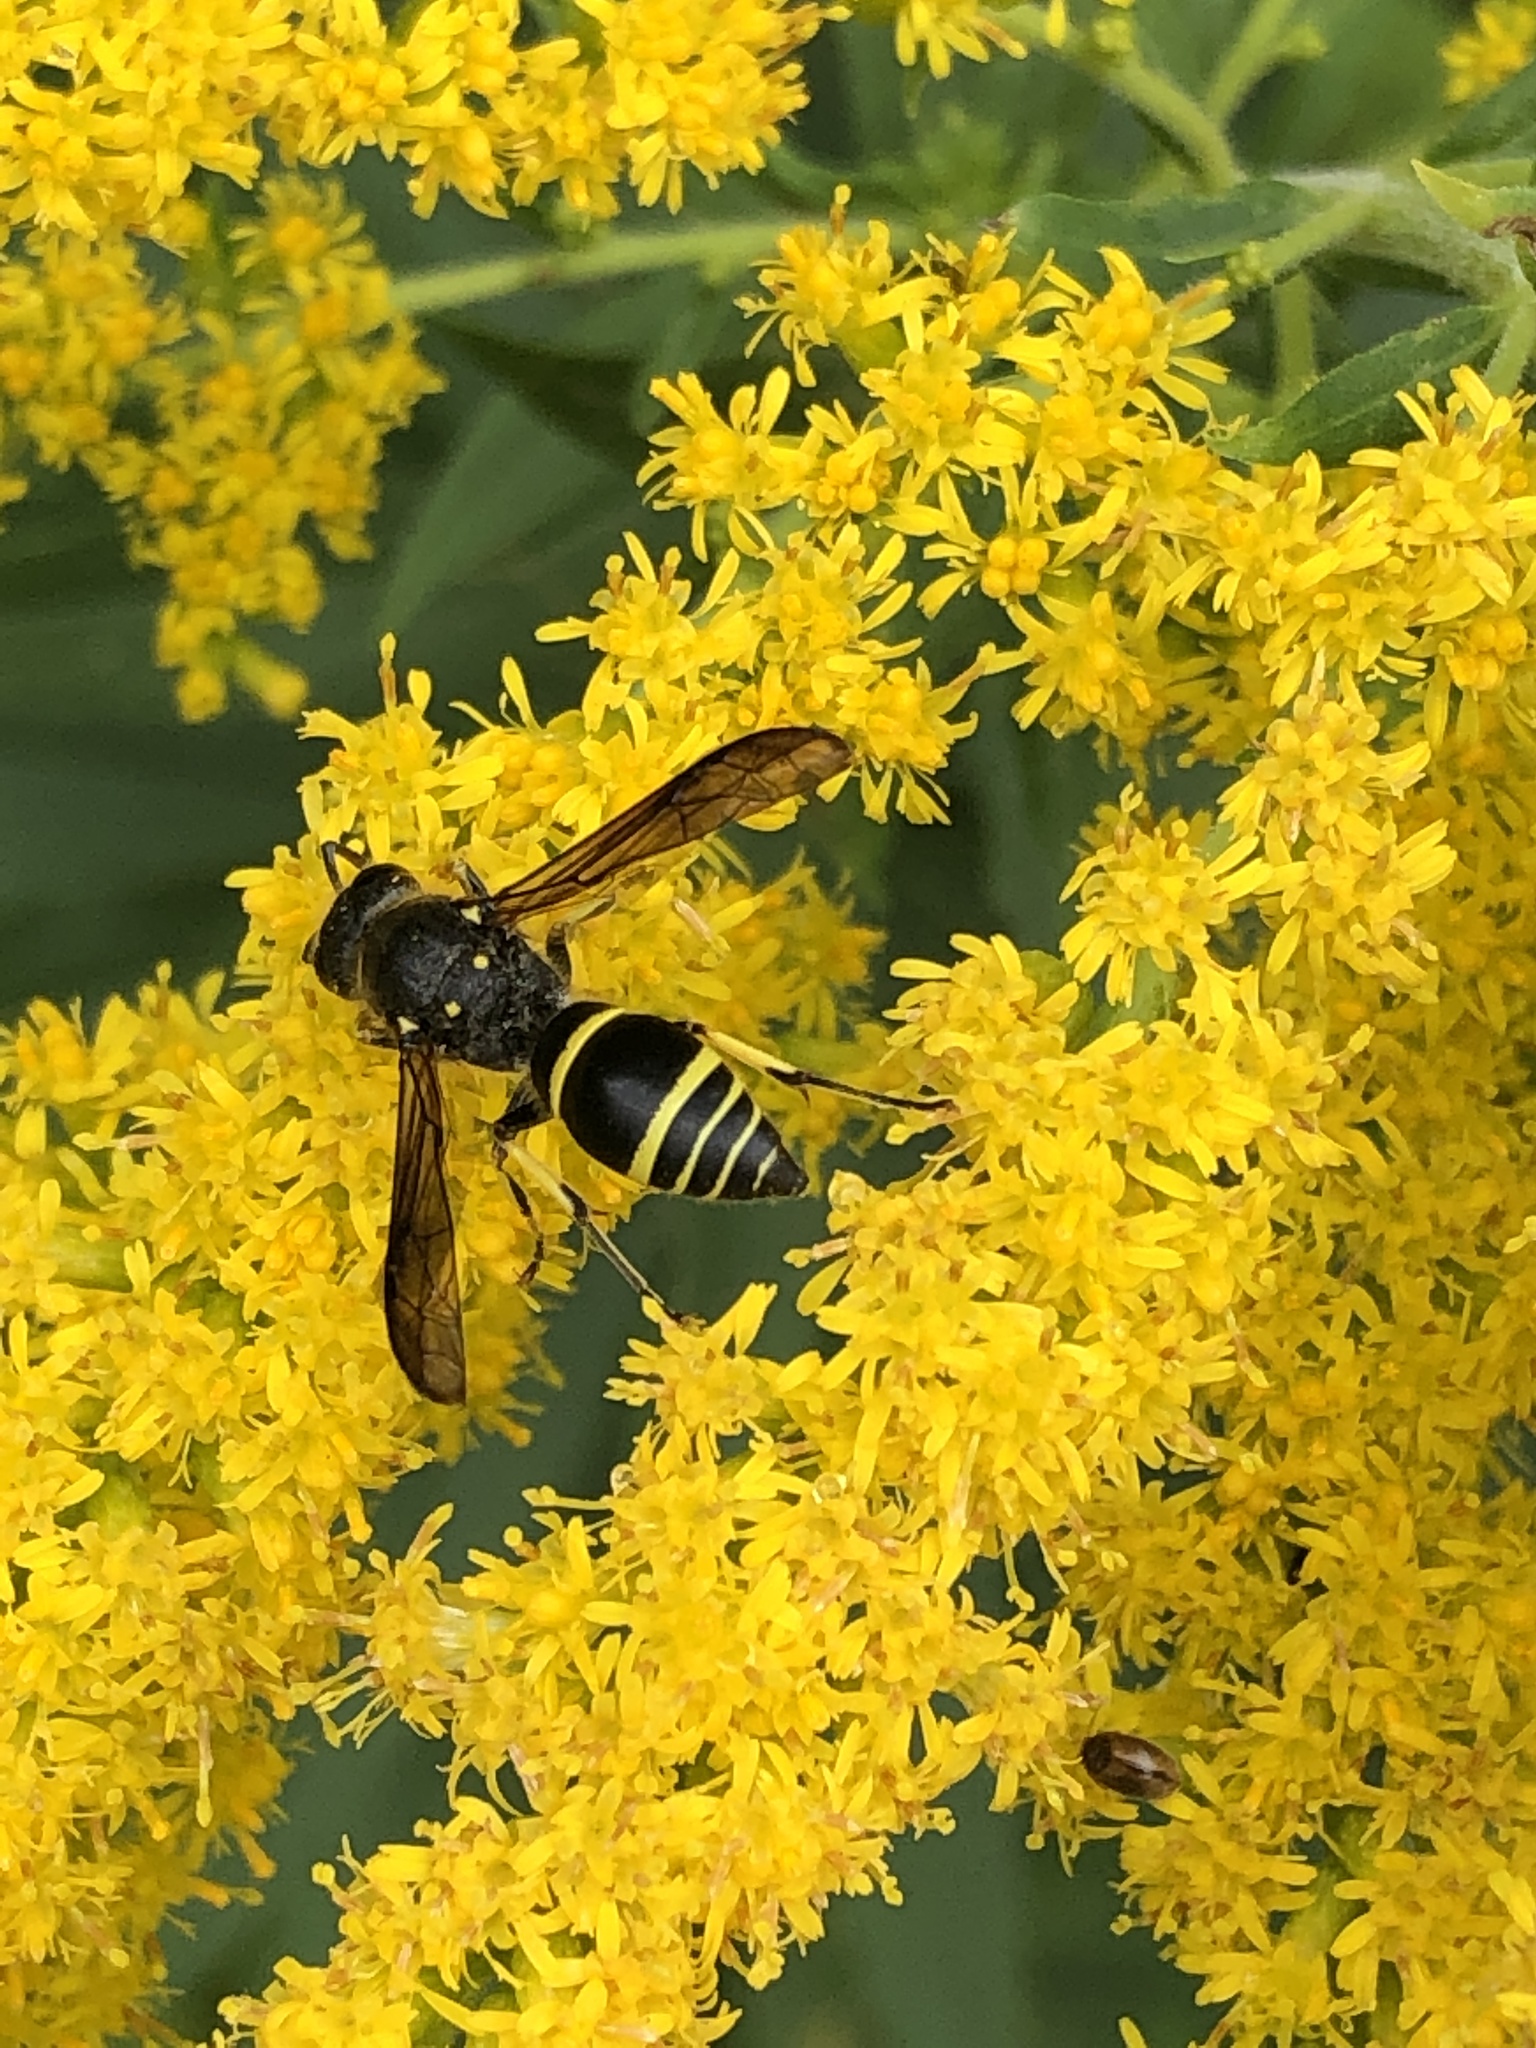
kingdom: Animalia
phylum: Arthropoda
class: Insecta
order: Hymenoptera
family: Vespidae
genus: Ancistrocerus
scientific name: Ancistrocerus
